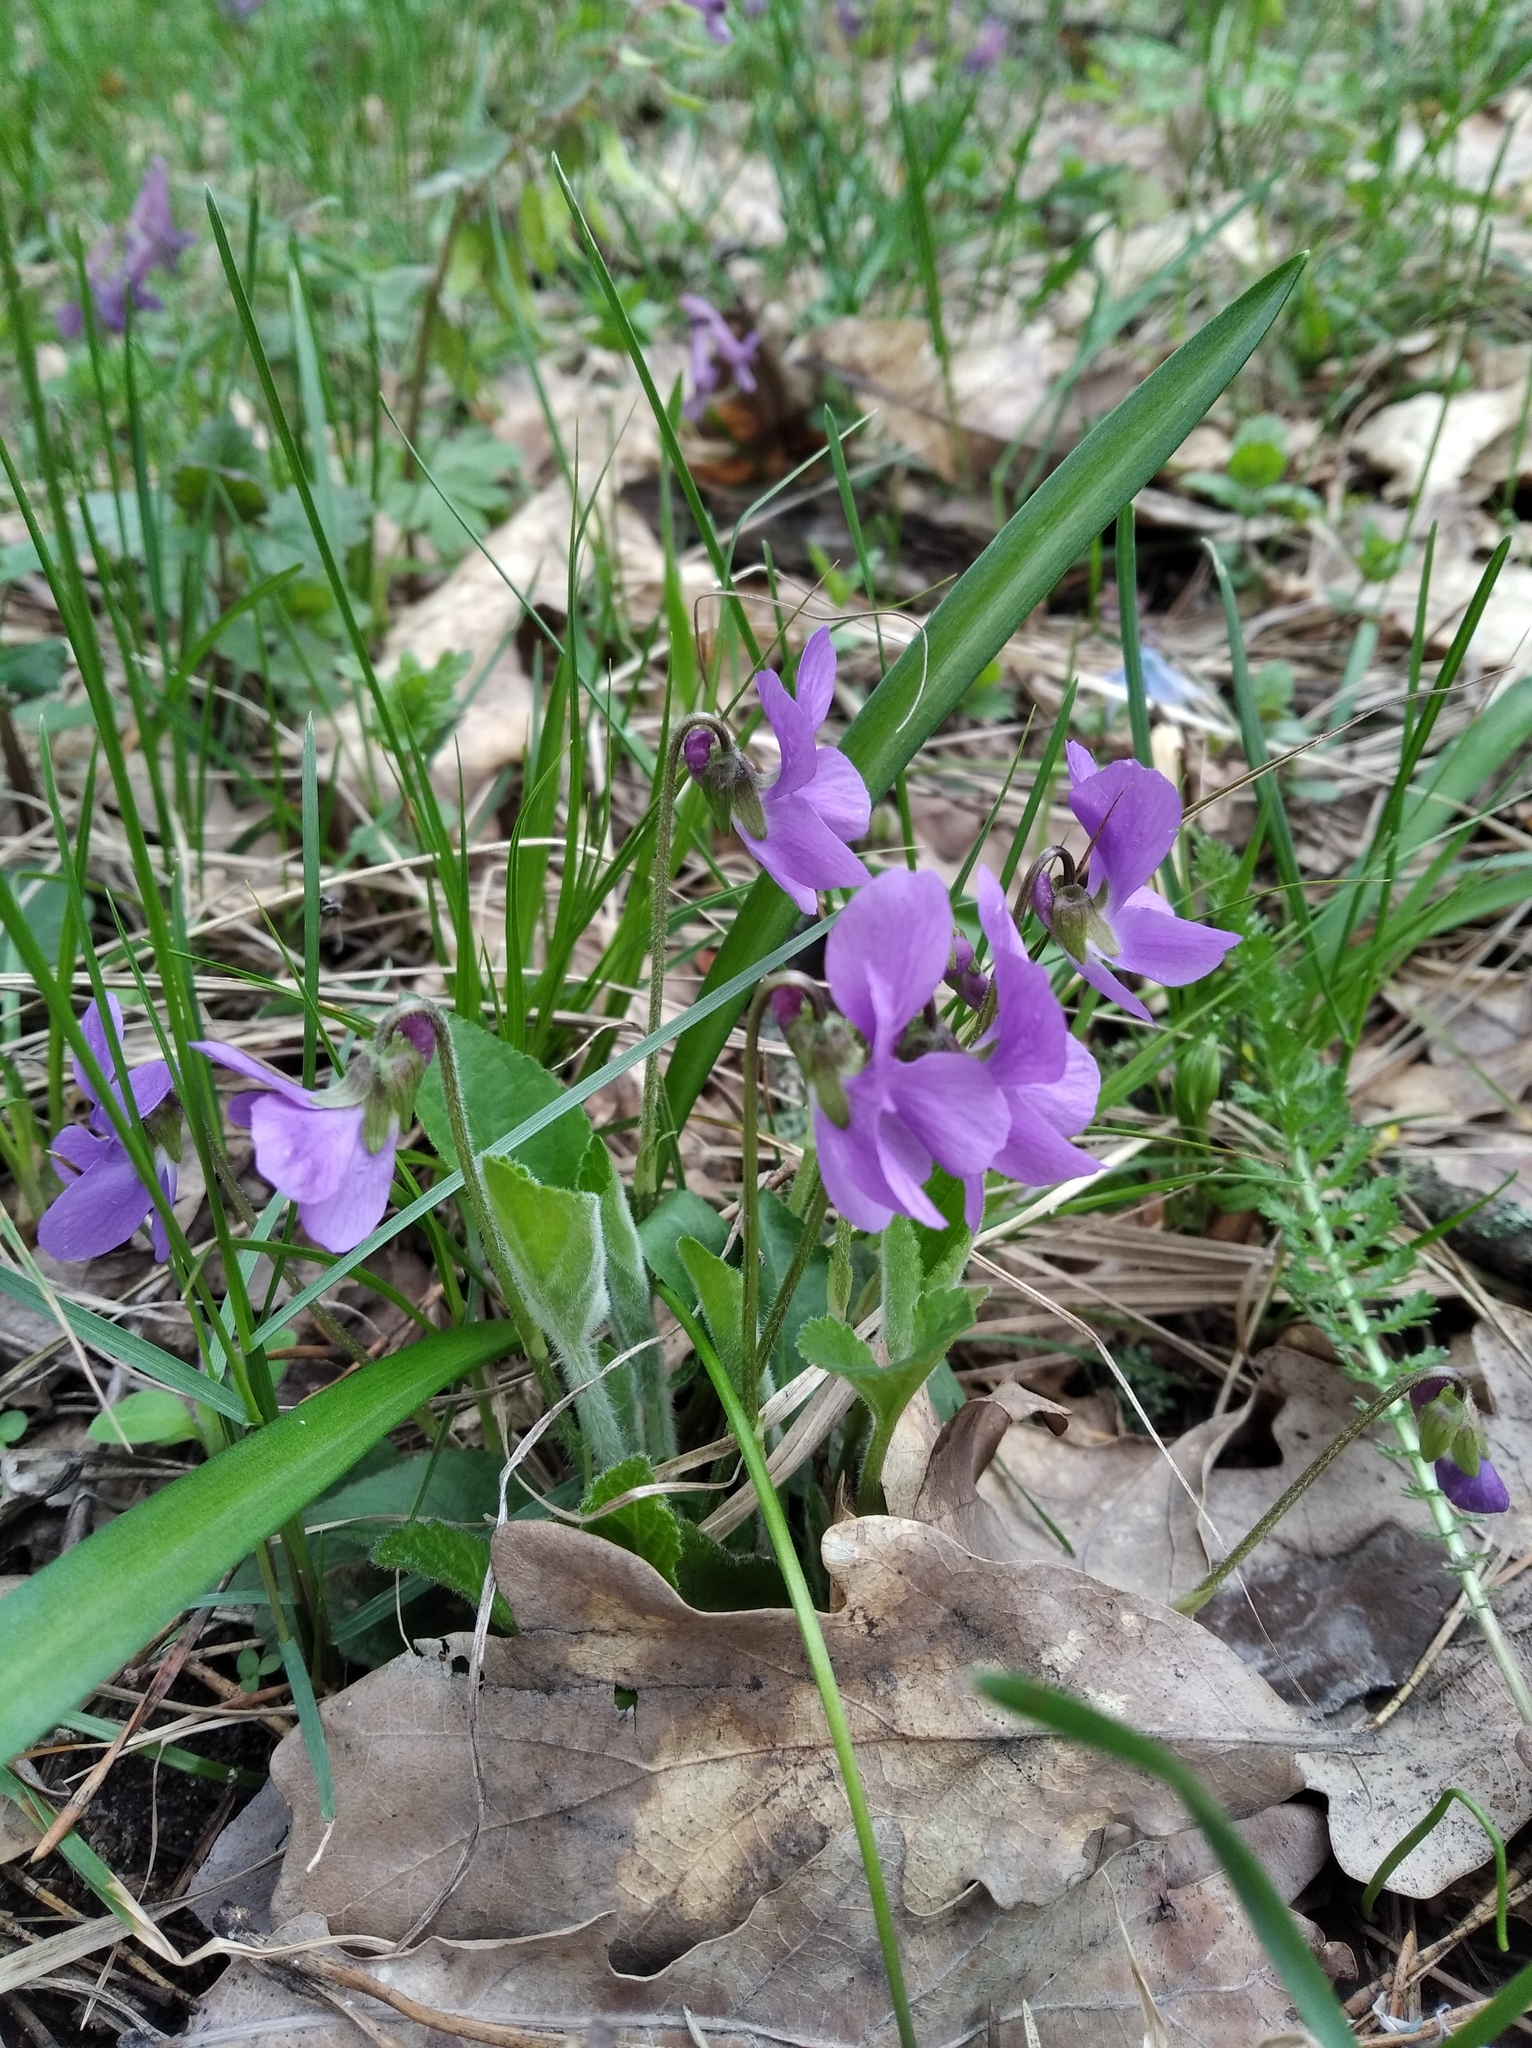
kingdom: Plantae
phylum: Tracheophyta
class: Magnoliopsida
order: Malpighiales
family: Violaceae
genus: Viola
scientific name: Viola hirta
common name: Hairy violet
